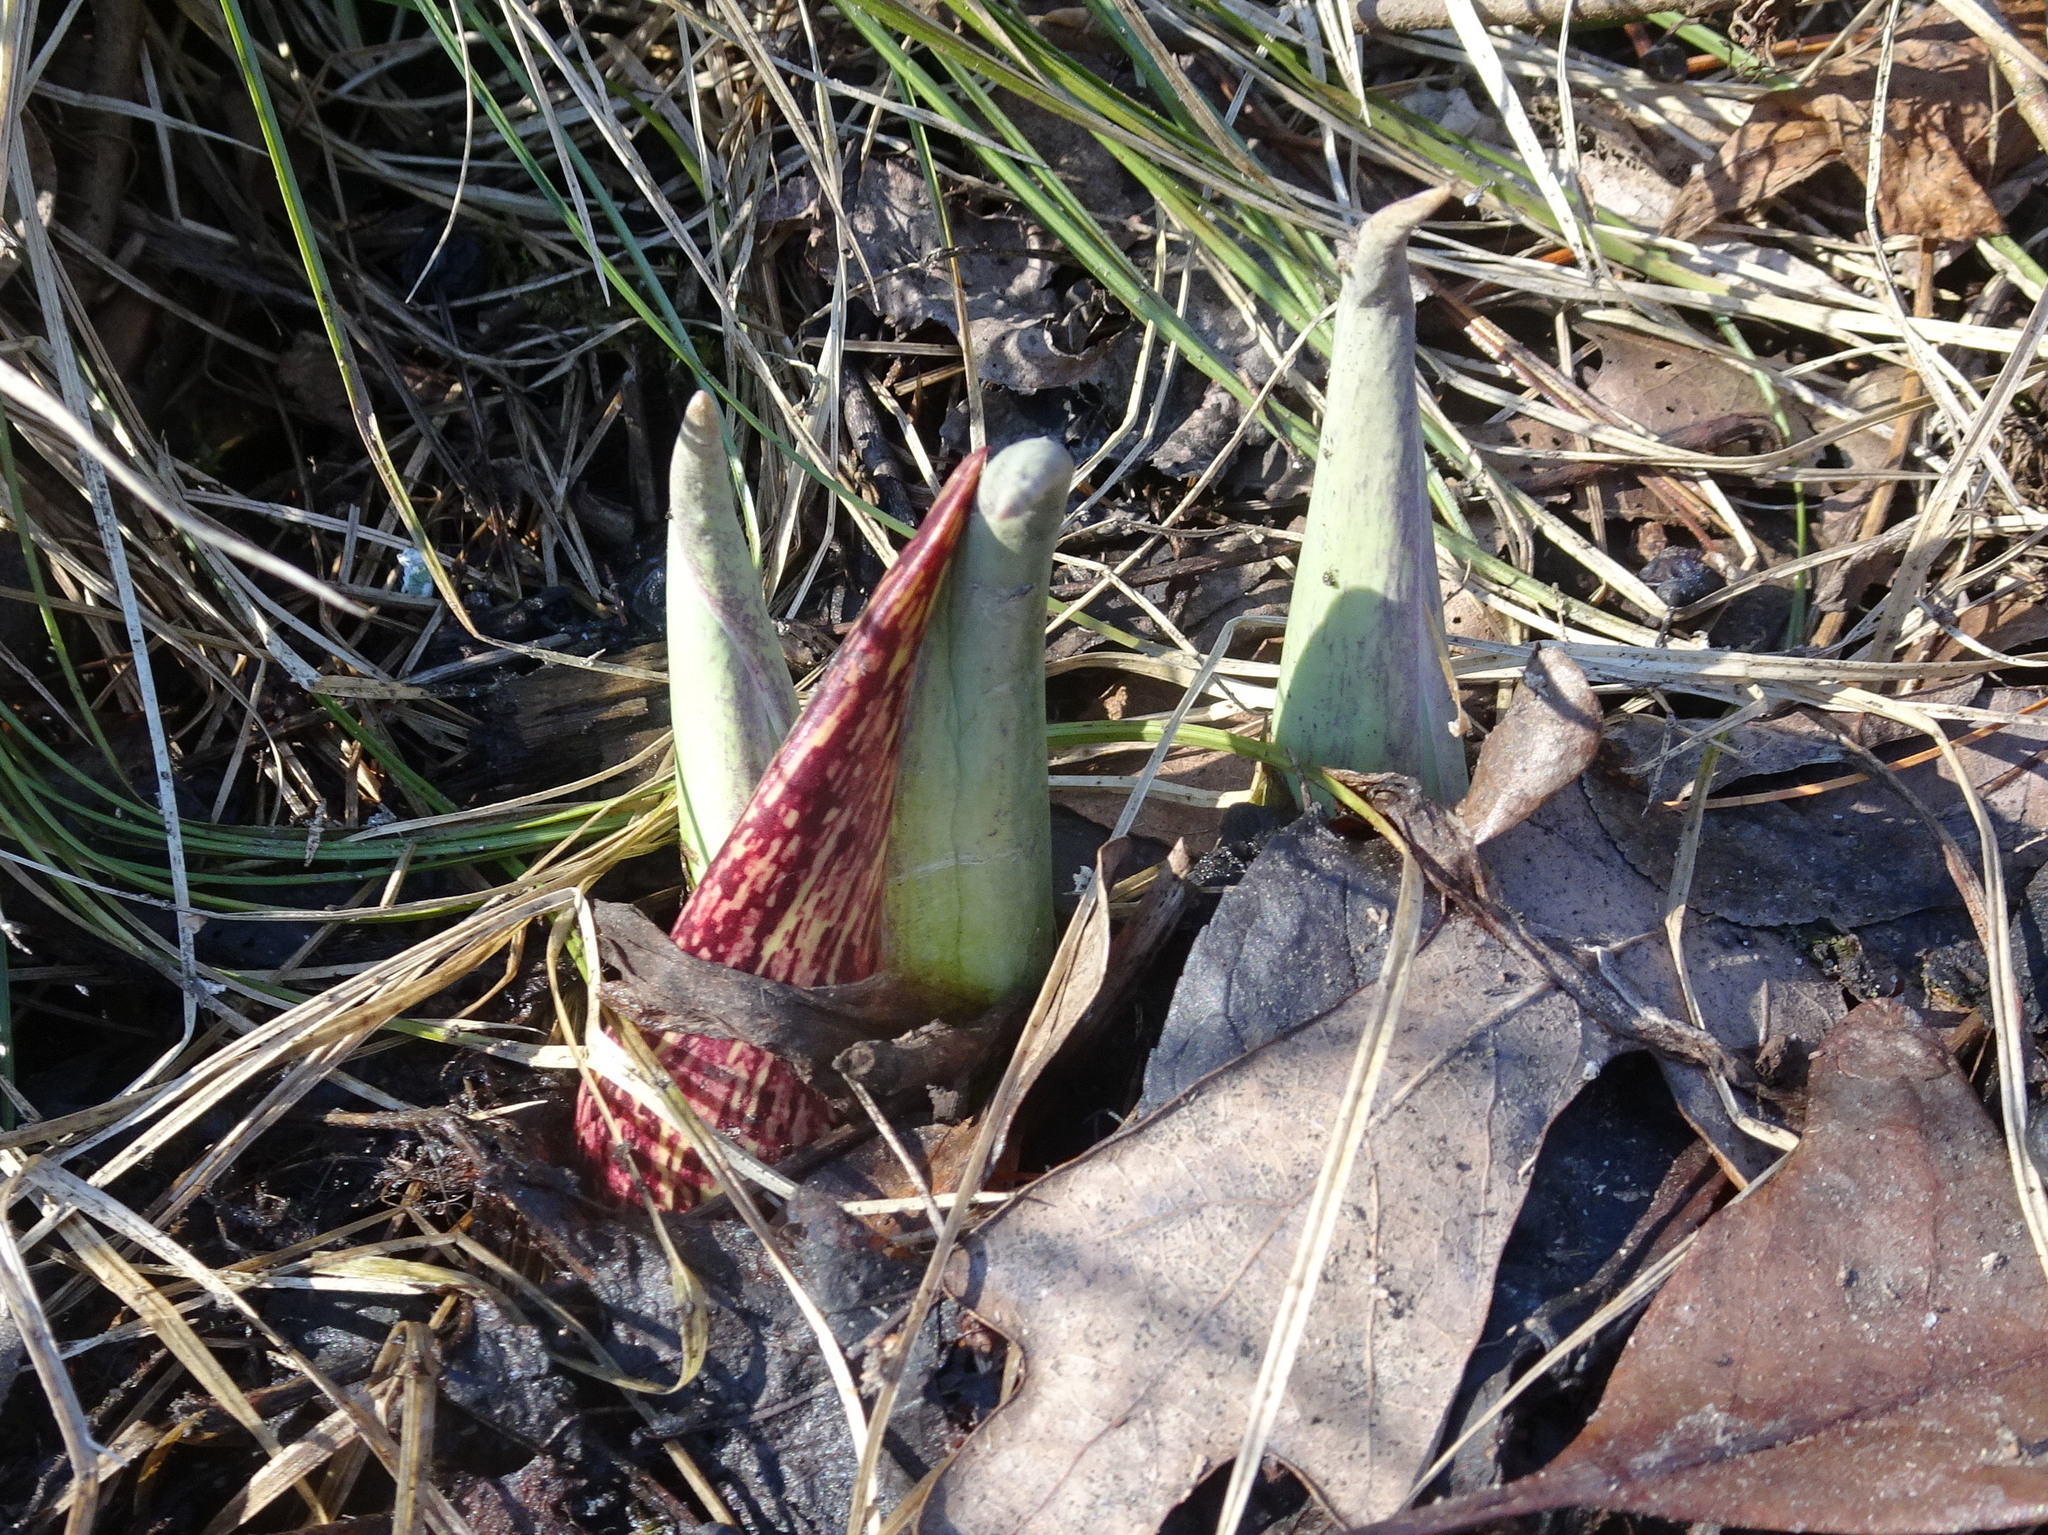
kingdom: Plantae
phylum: Tracheophyta
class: Liliopsida
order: Alismatales
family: Araceae
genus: Symplocarpus
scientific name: Symplocarpus foetidus
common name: Eastern skunk cabbage
